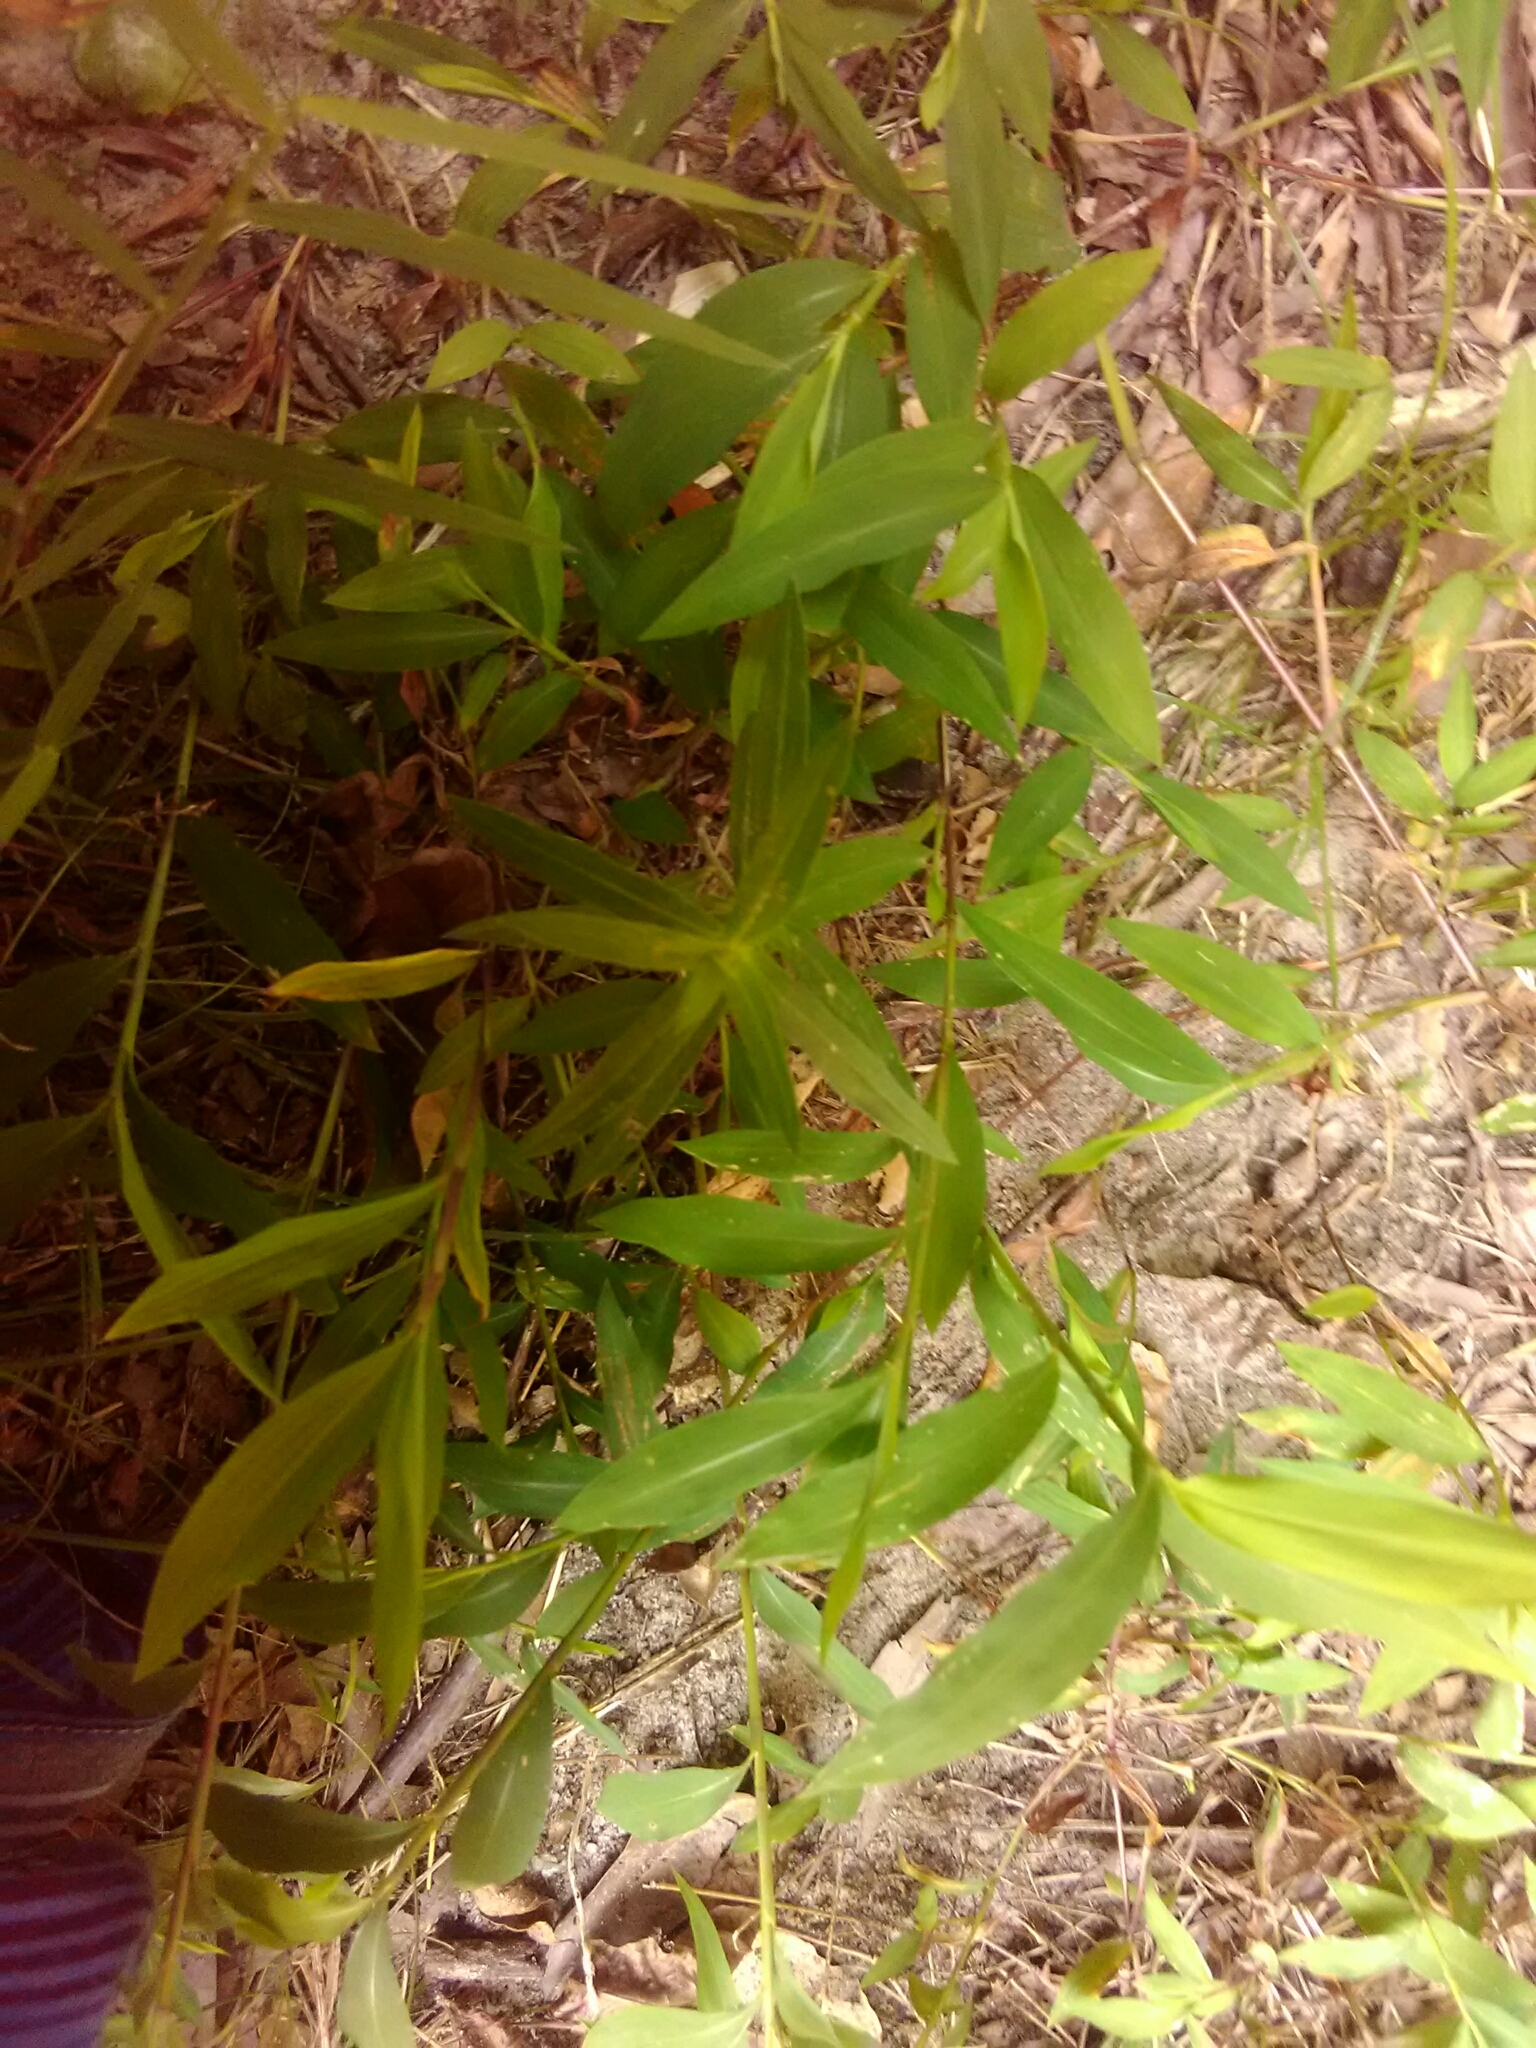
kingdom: Plantae
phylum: Tracheophyta
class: Liliopsida
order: Poales
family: Poaceae
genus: Microstegium
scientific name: Microstegium vimineum
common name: Japanese stiltgrass
